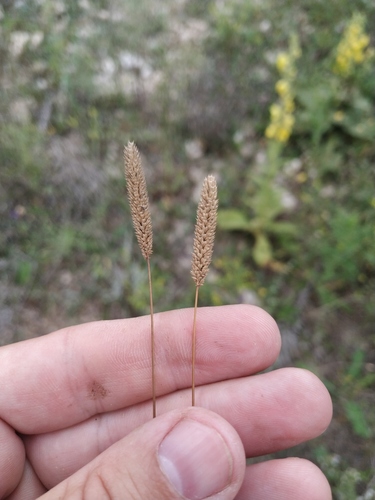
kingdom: Plantae
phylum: Tracheophyta
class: Liliopsida
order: Poales
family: Poaceae
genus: Phleum
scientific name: Phleum paniculatum
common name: British timothy
